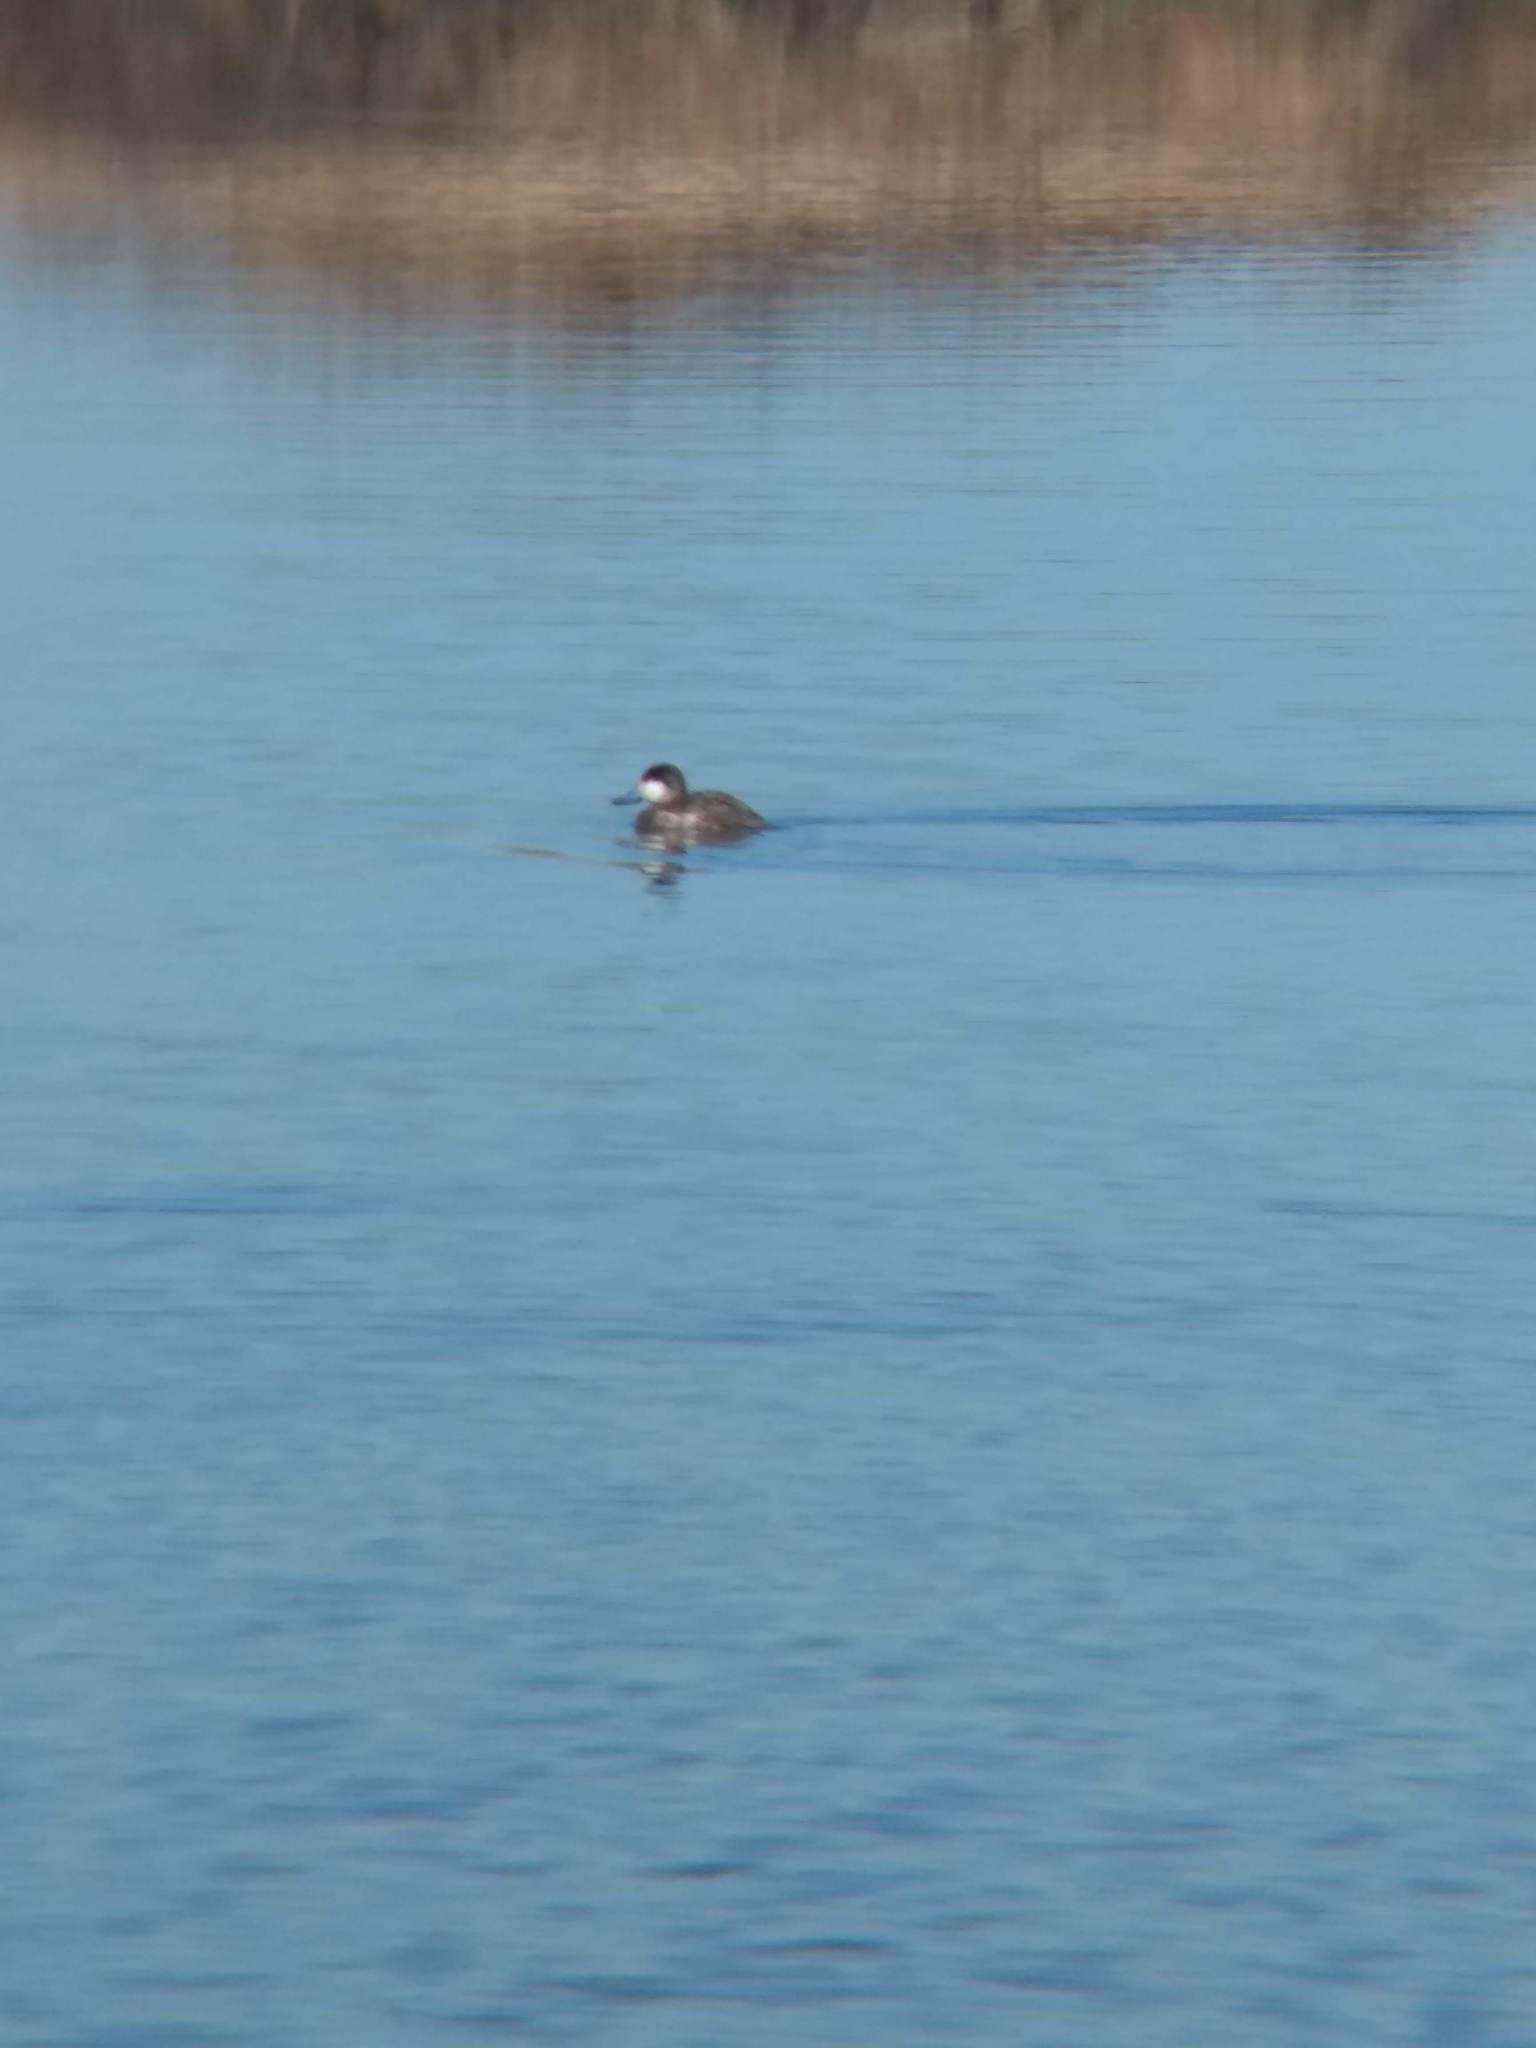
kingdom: Animalia
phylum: Chordata
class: Aves
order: Anseriformes
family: Anatidae
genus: Oxyura
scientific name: Oxyura jamaicensis
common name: Ruddy duck
